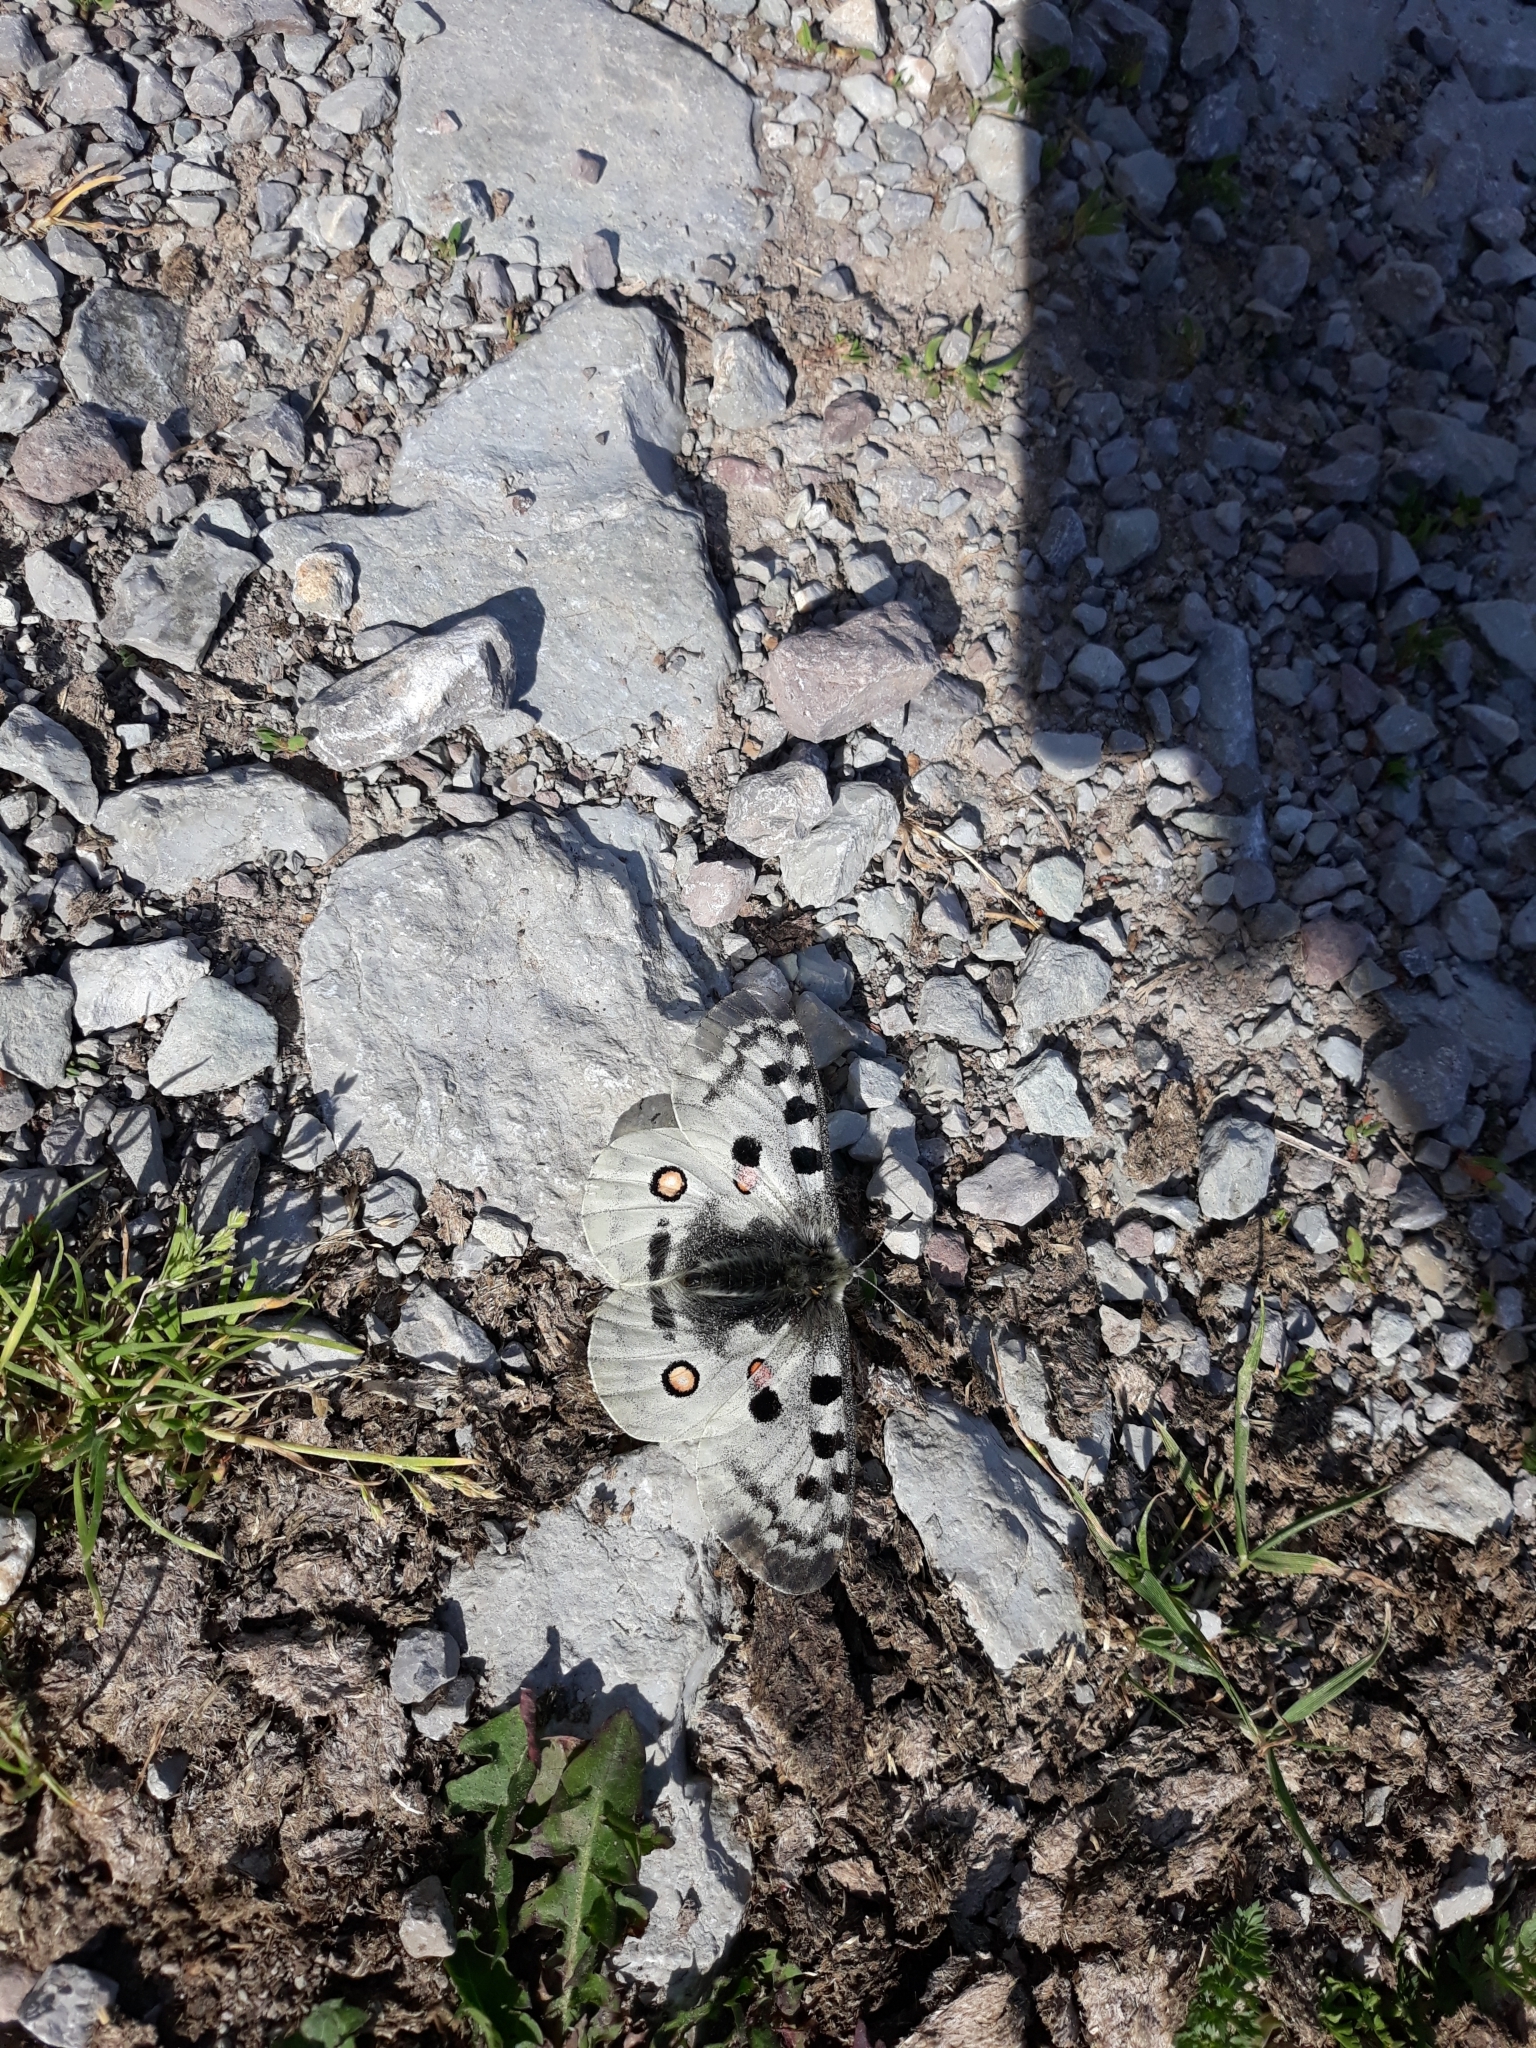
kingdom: Animalia
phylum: Arthropoda
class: Insecta
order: Lepidoptera
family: Papilionidae
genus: Parnassius
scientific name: Parnassius apollo
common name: Apollo
